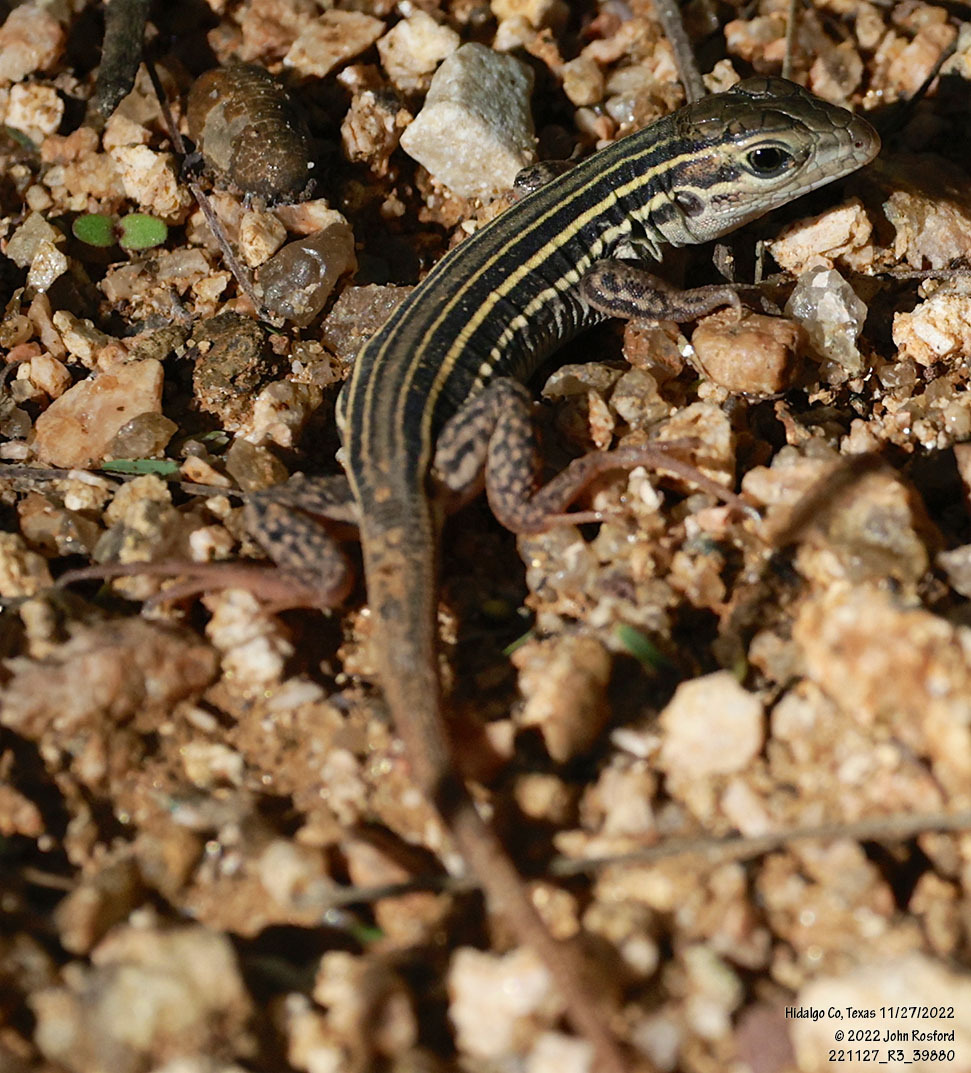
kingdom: Animalia
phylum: Chordata
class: Squamata
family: Teiidae
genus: Aspidoscelis
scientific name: Aspidoscelis gularis
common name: Eastern spotted whiptail
